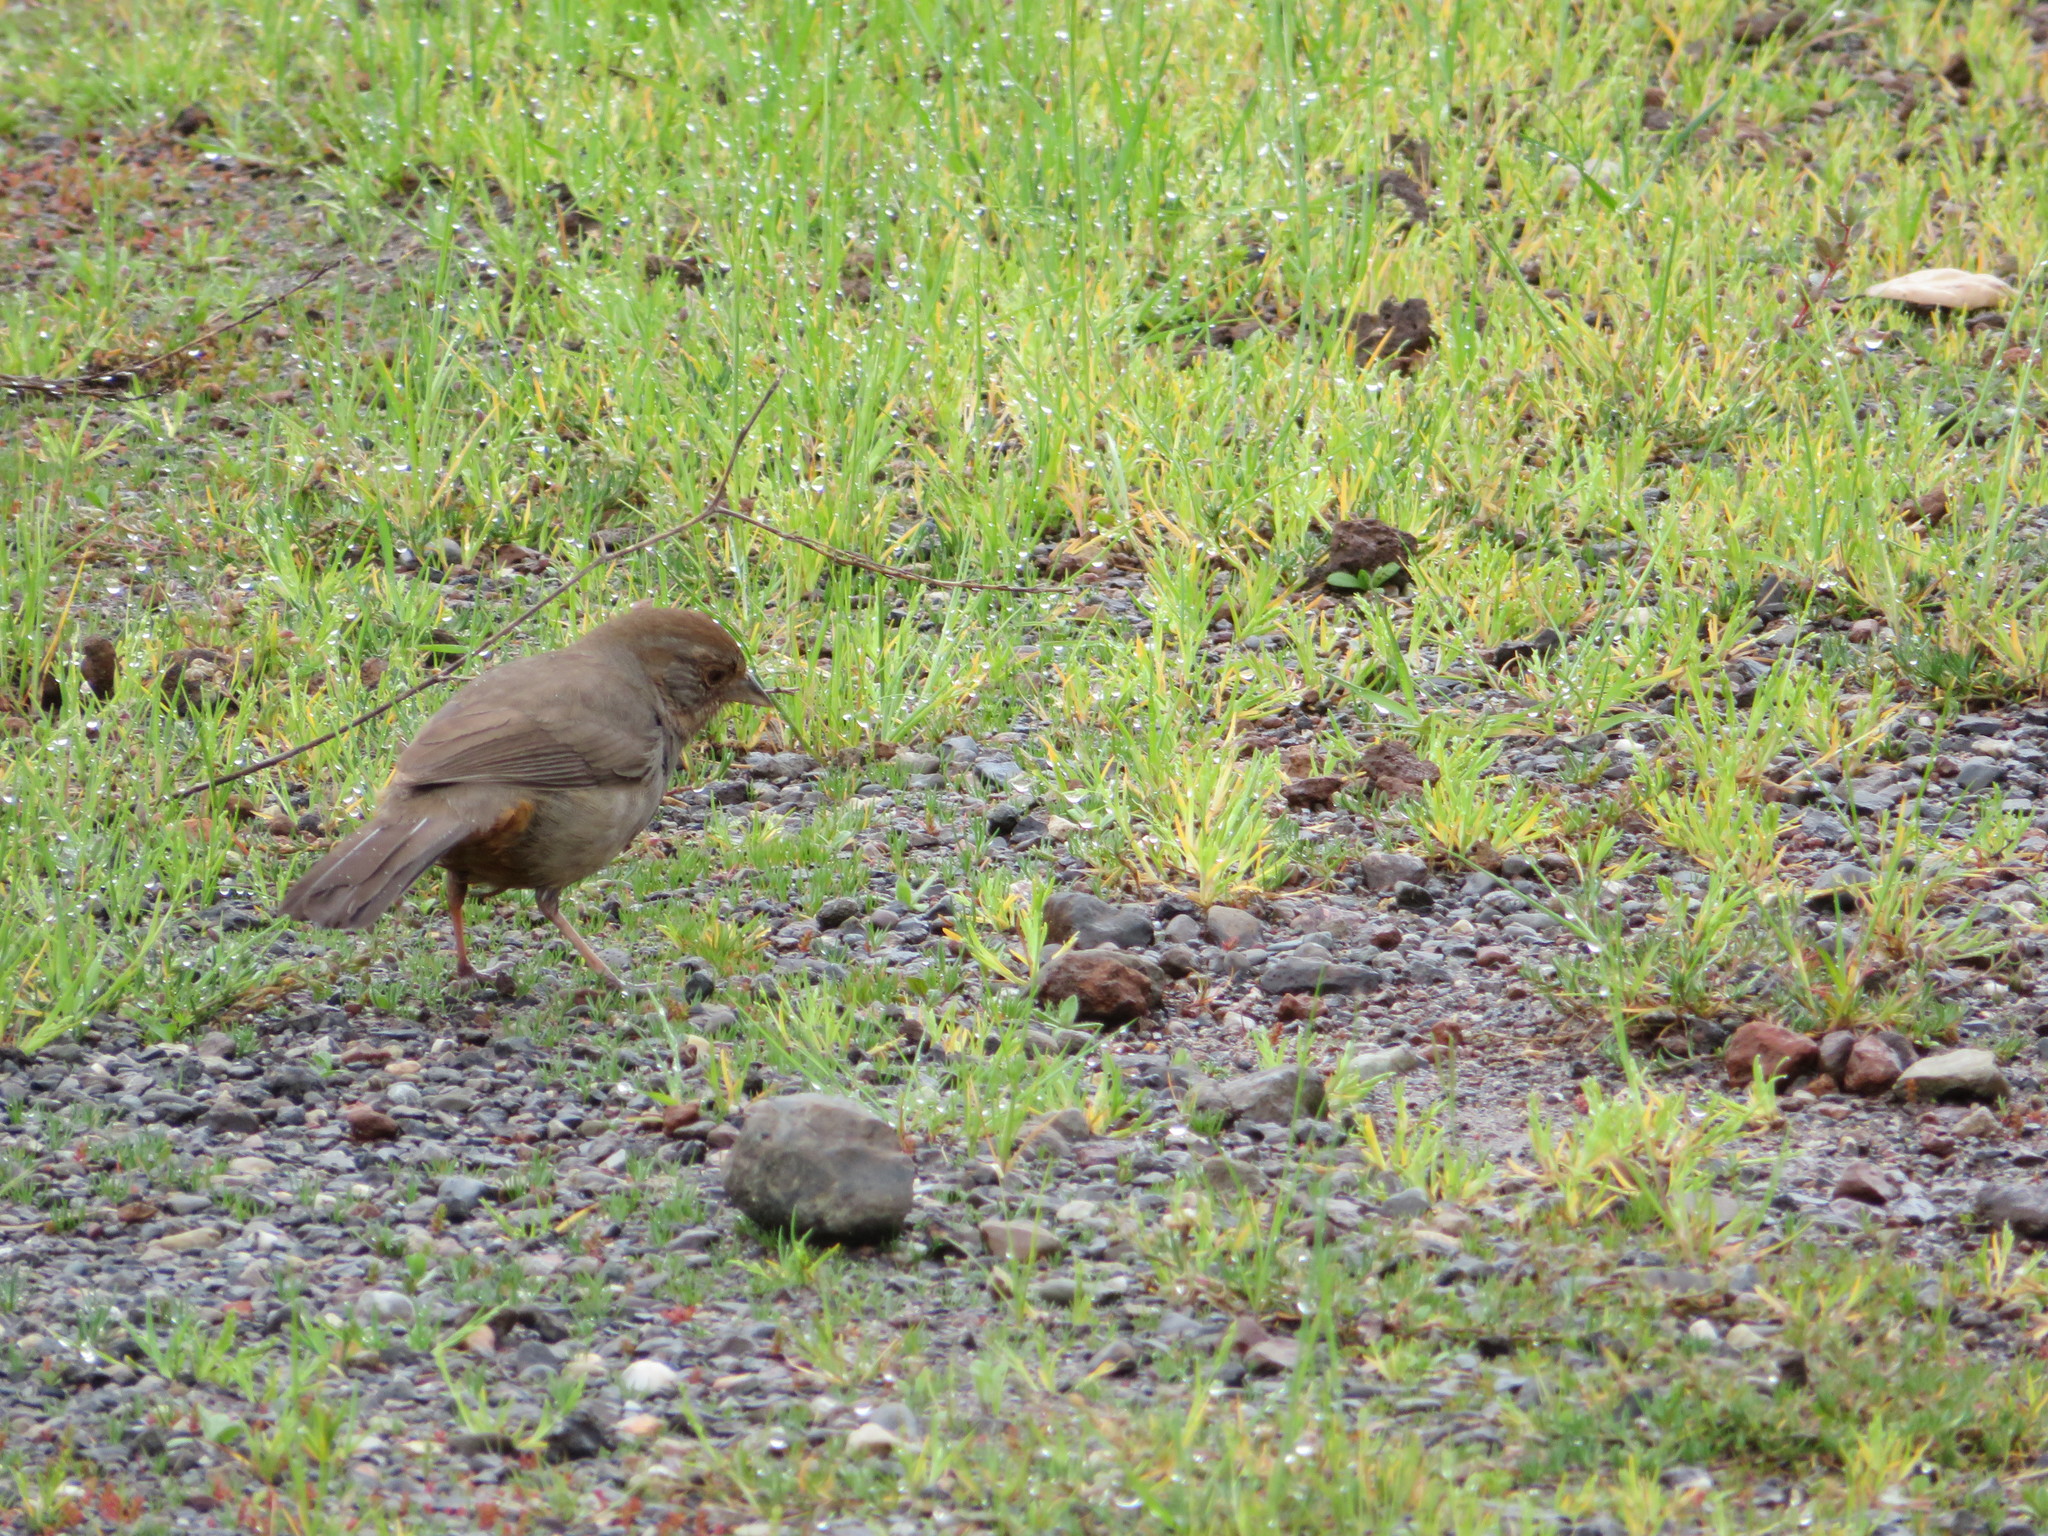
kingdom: Animalia
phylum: Chordata
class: Aves
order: Passeriformes
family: Passerellidae
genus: Melozone
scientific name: Melozone crissalis
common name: California towhee
